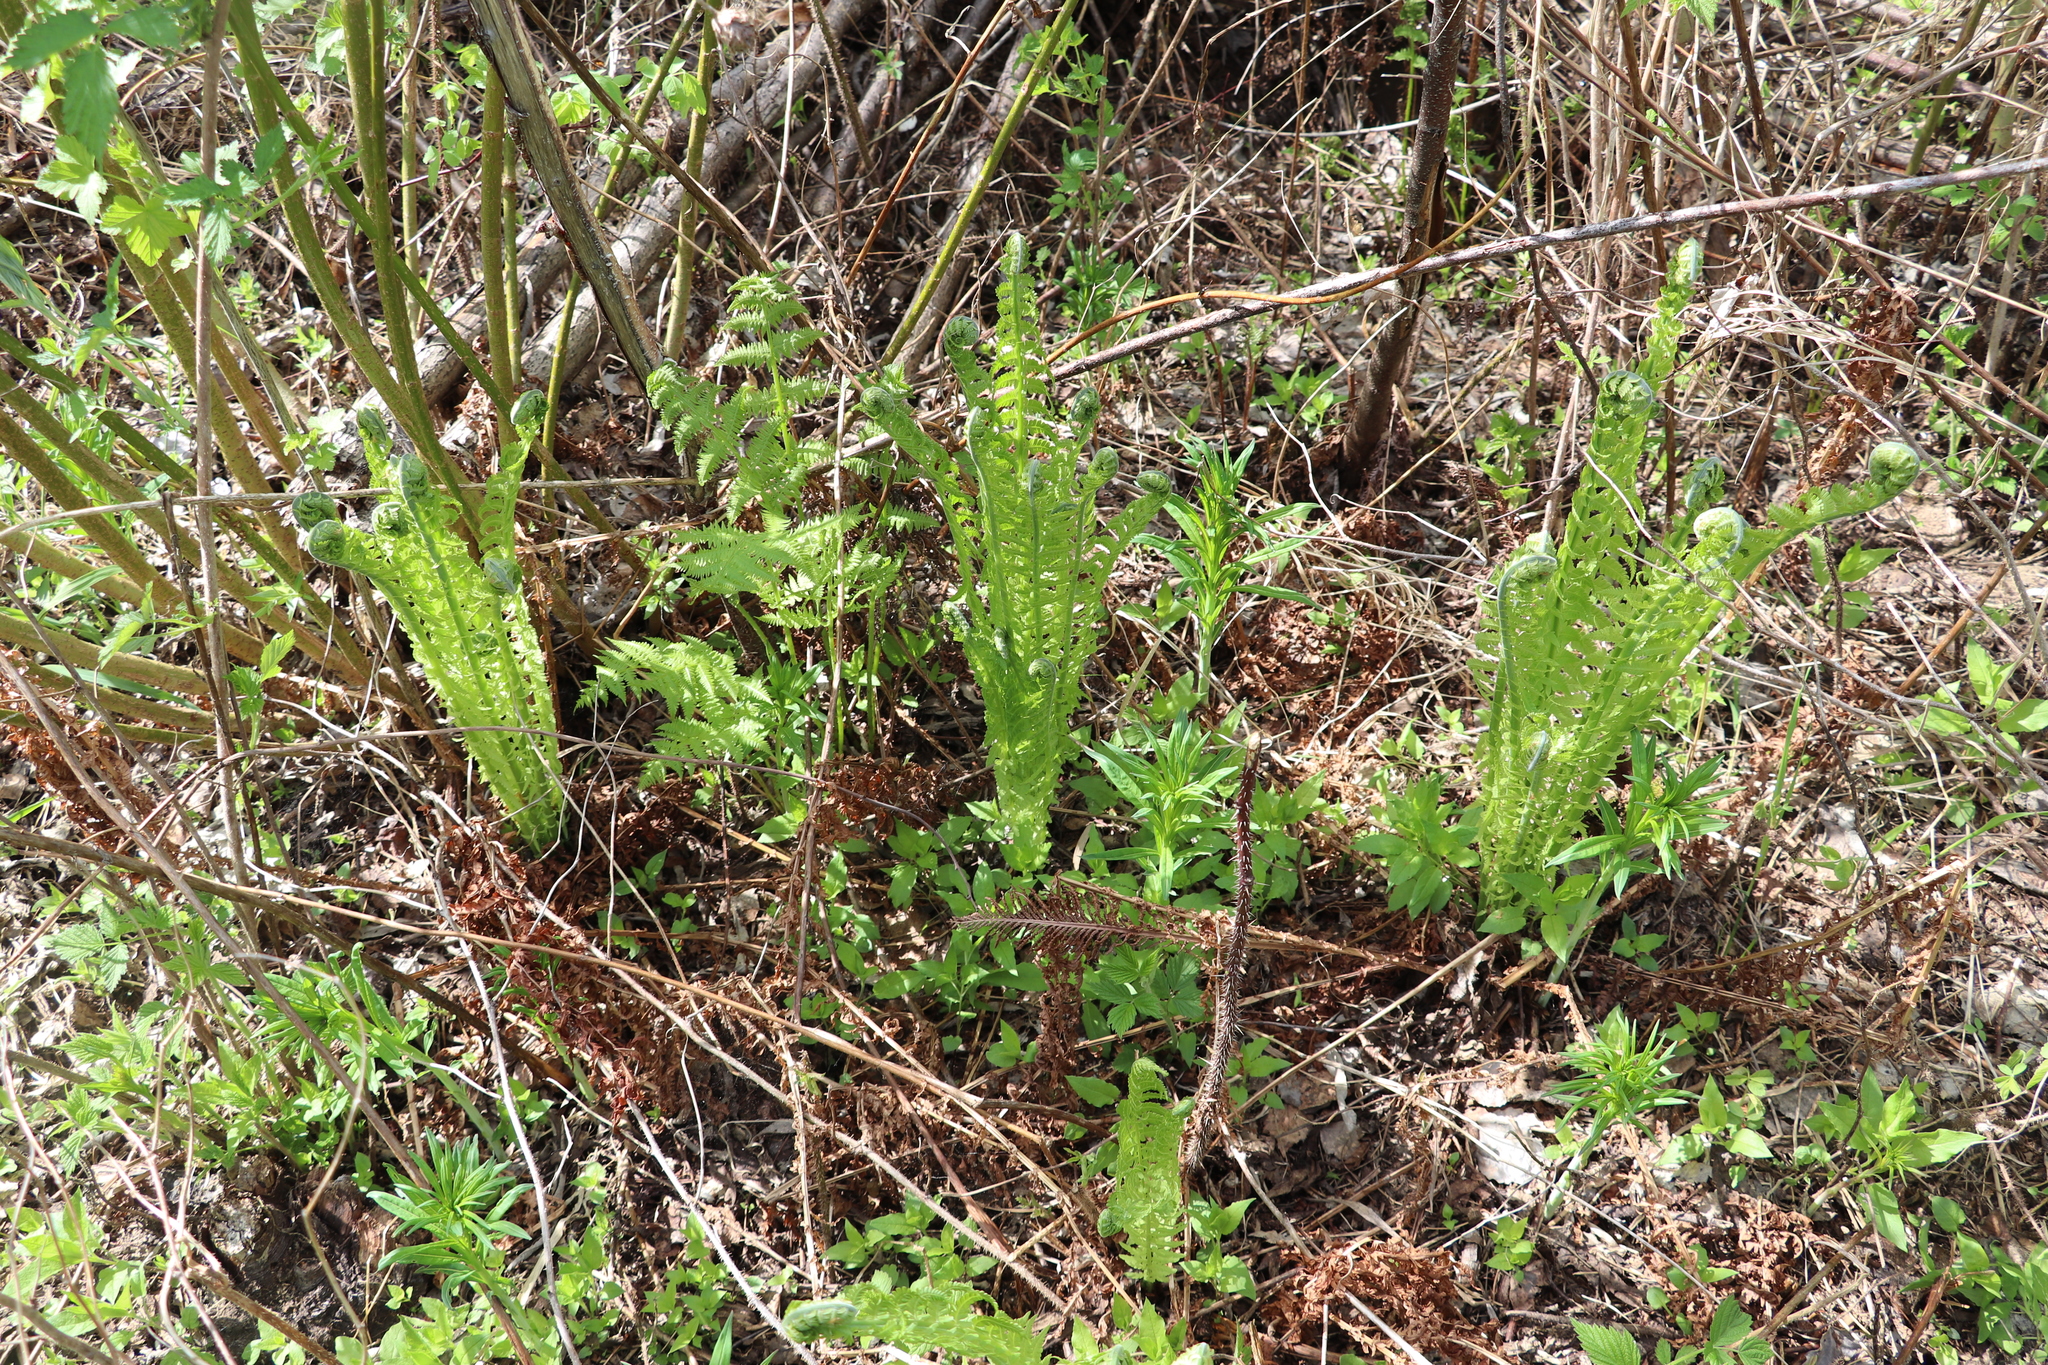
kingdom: Plantae
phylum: Tracheophyta
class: Polypodiopsida
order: Polypodiales
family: Onocleaceae
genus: Matteuccia
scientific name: Matteuccia struthiopteris
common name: Ostrich fern
